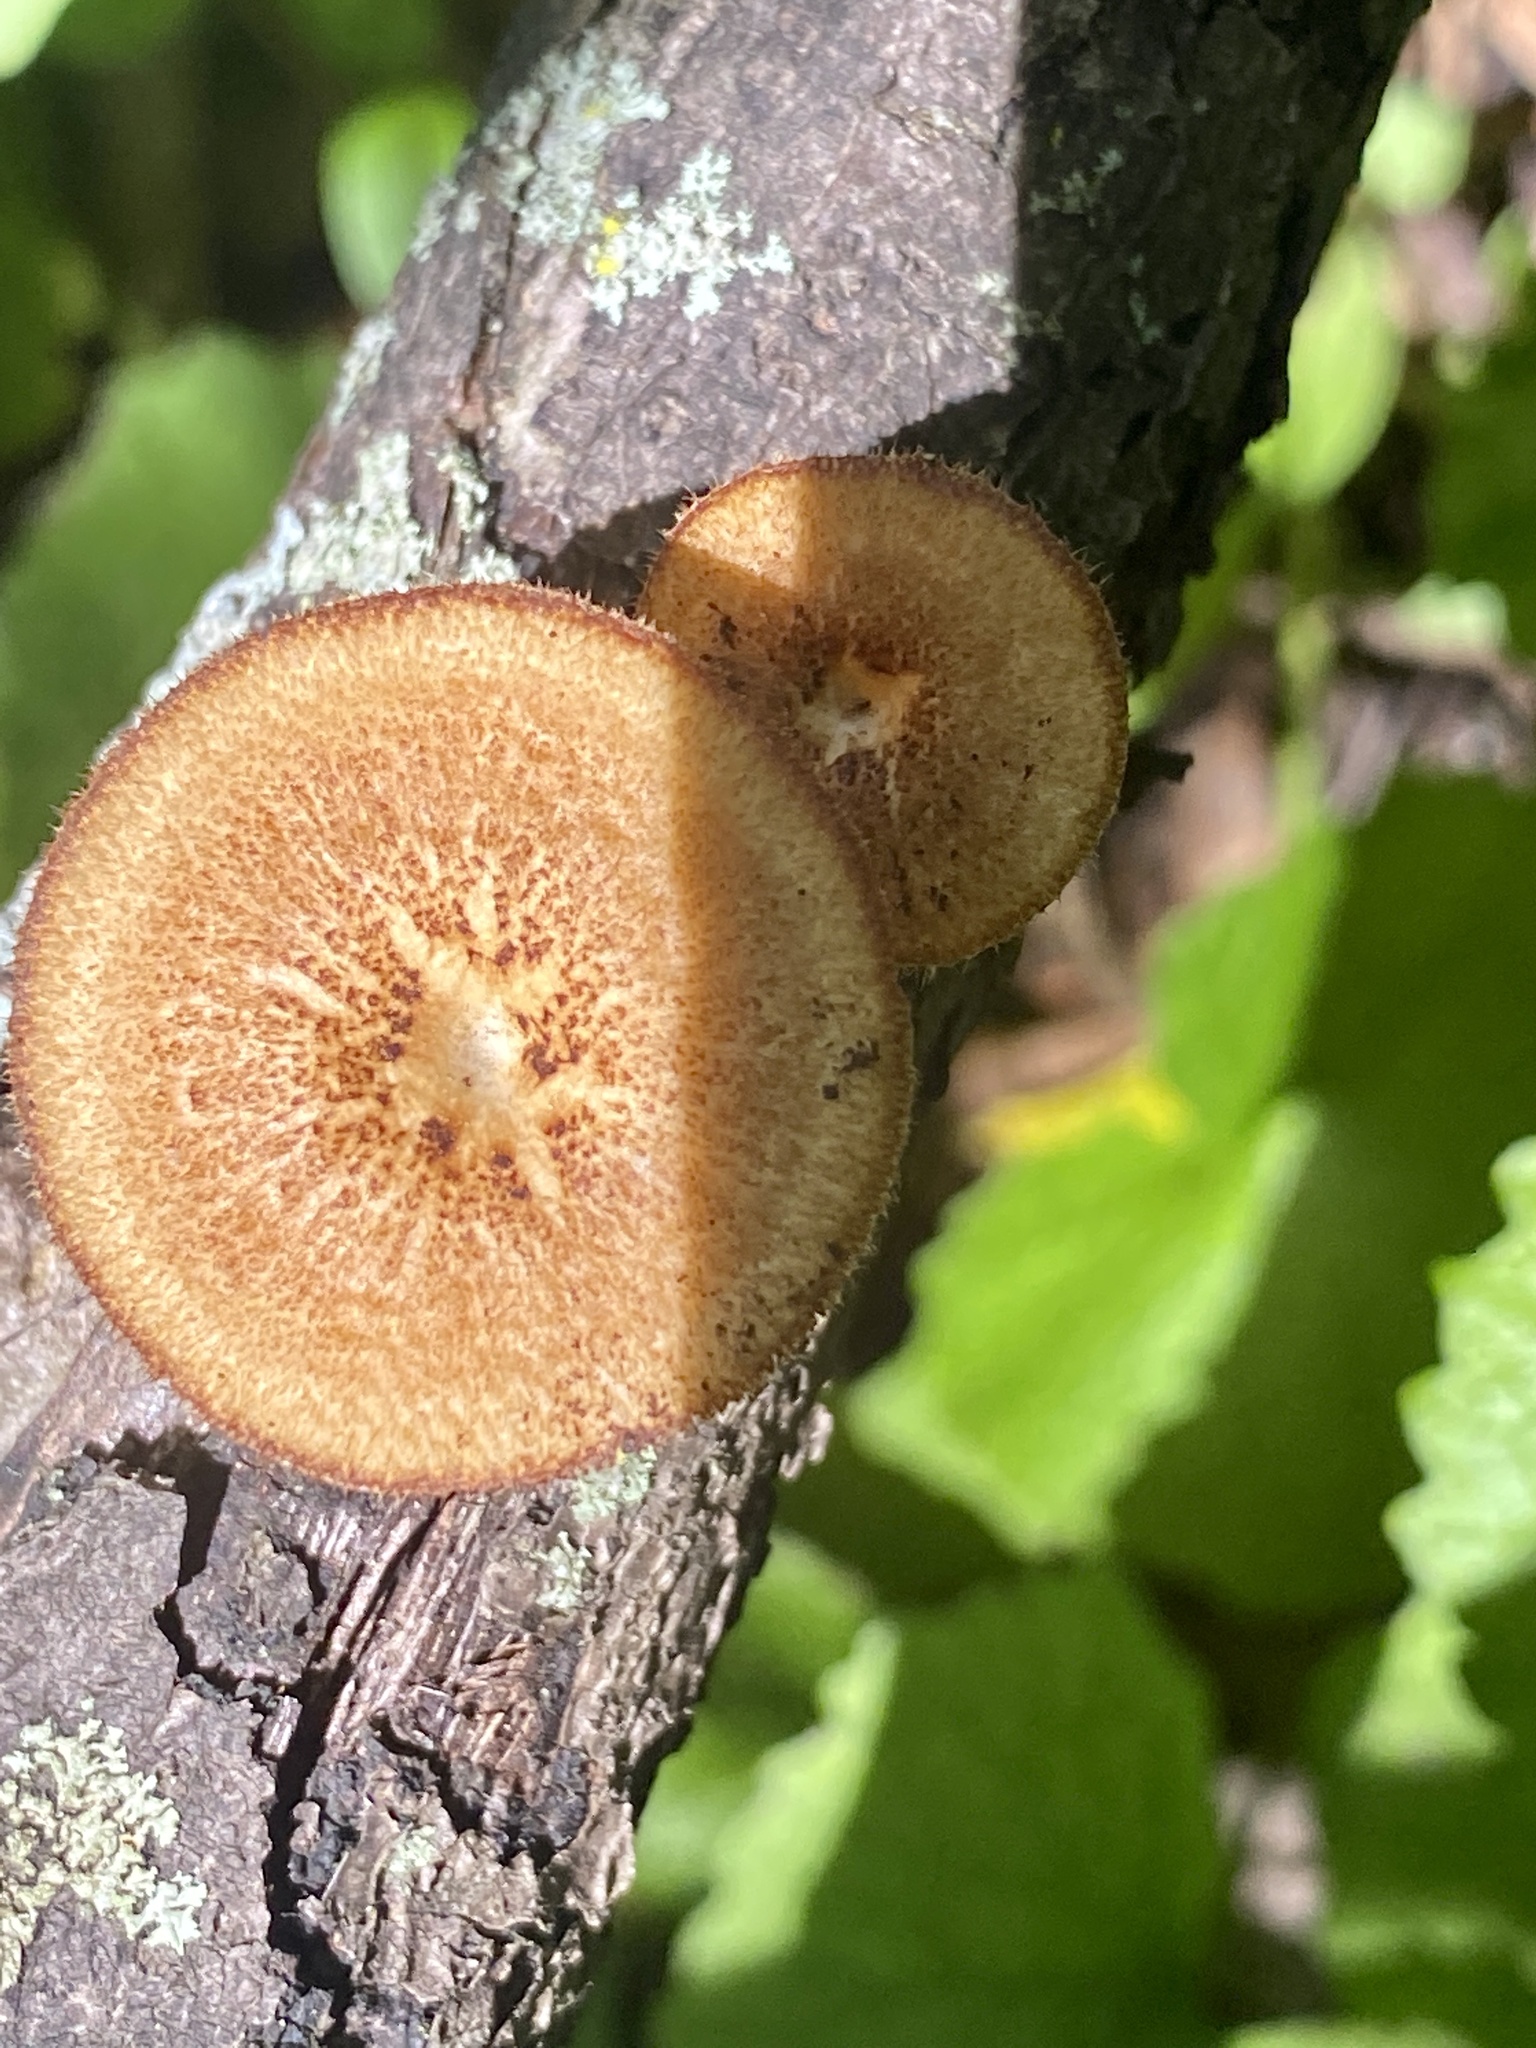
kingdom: Fungi
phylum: Basidiomycota
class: Agaricomycetes
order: Polyporales
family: Polyporaceae
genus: Lentinus
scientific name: Lentinus arcularius
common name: Spring polypore
